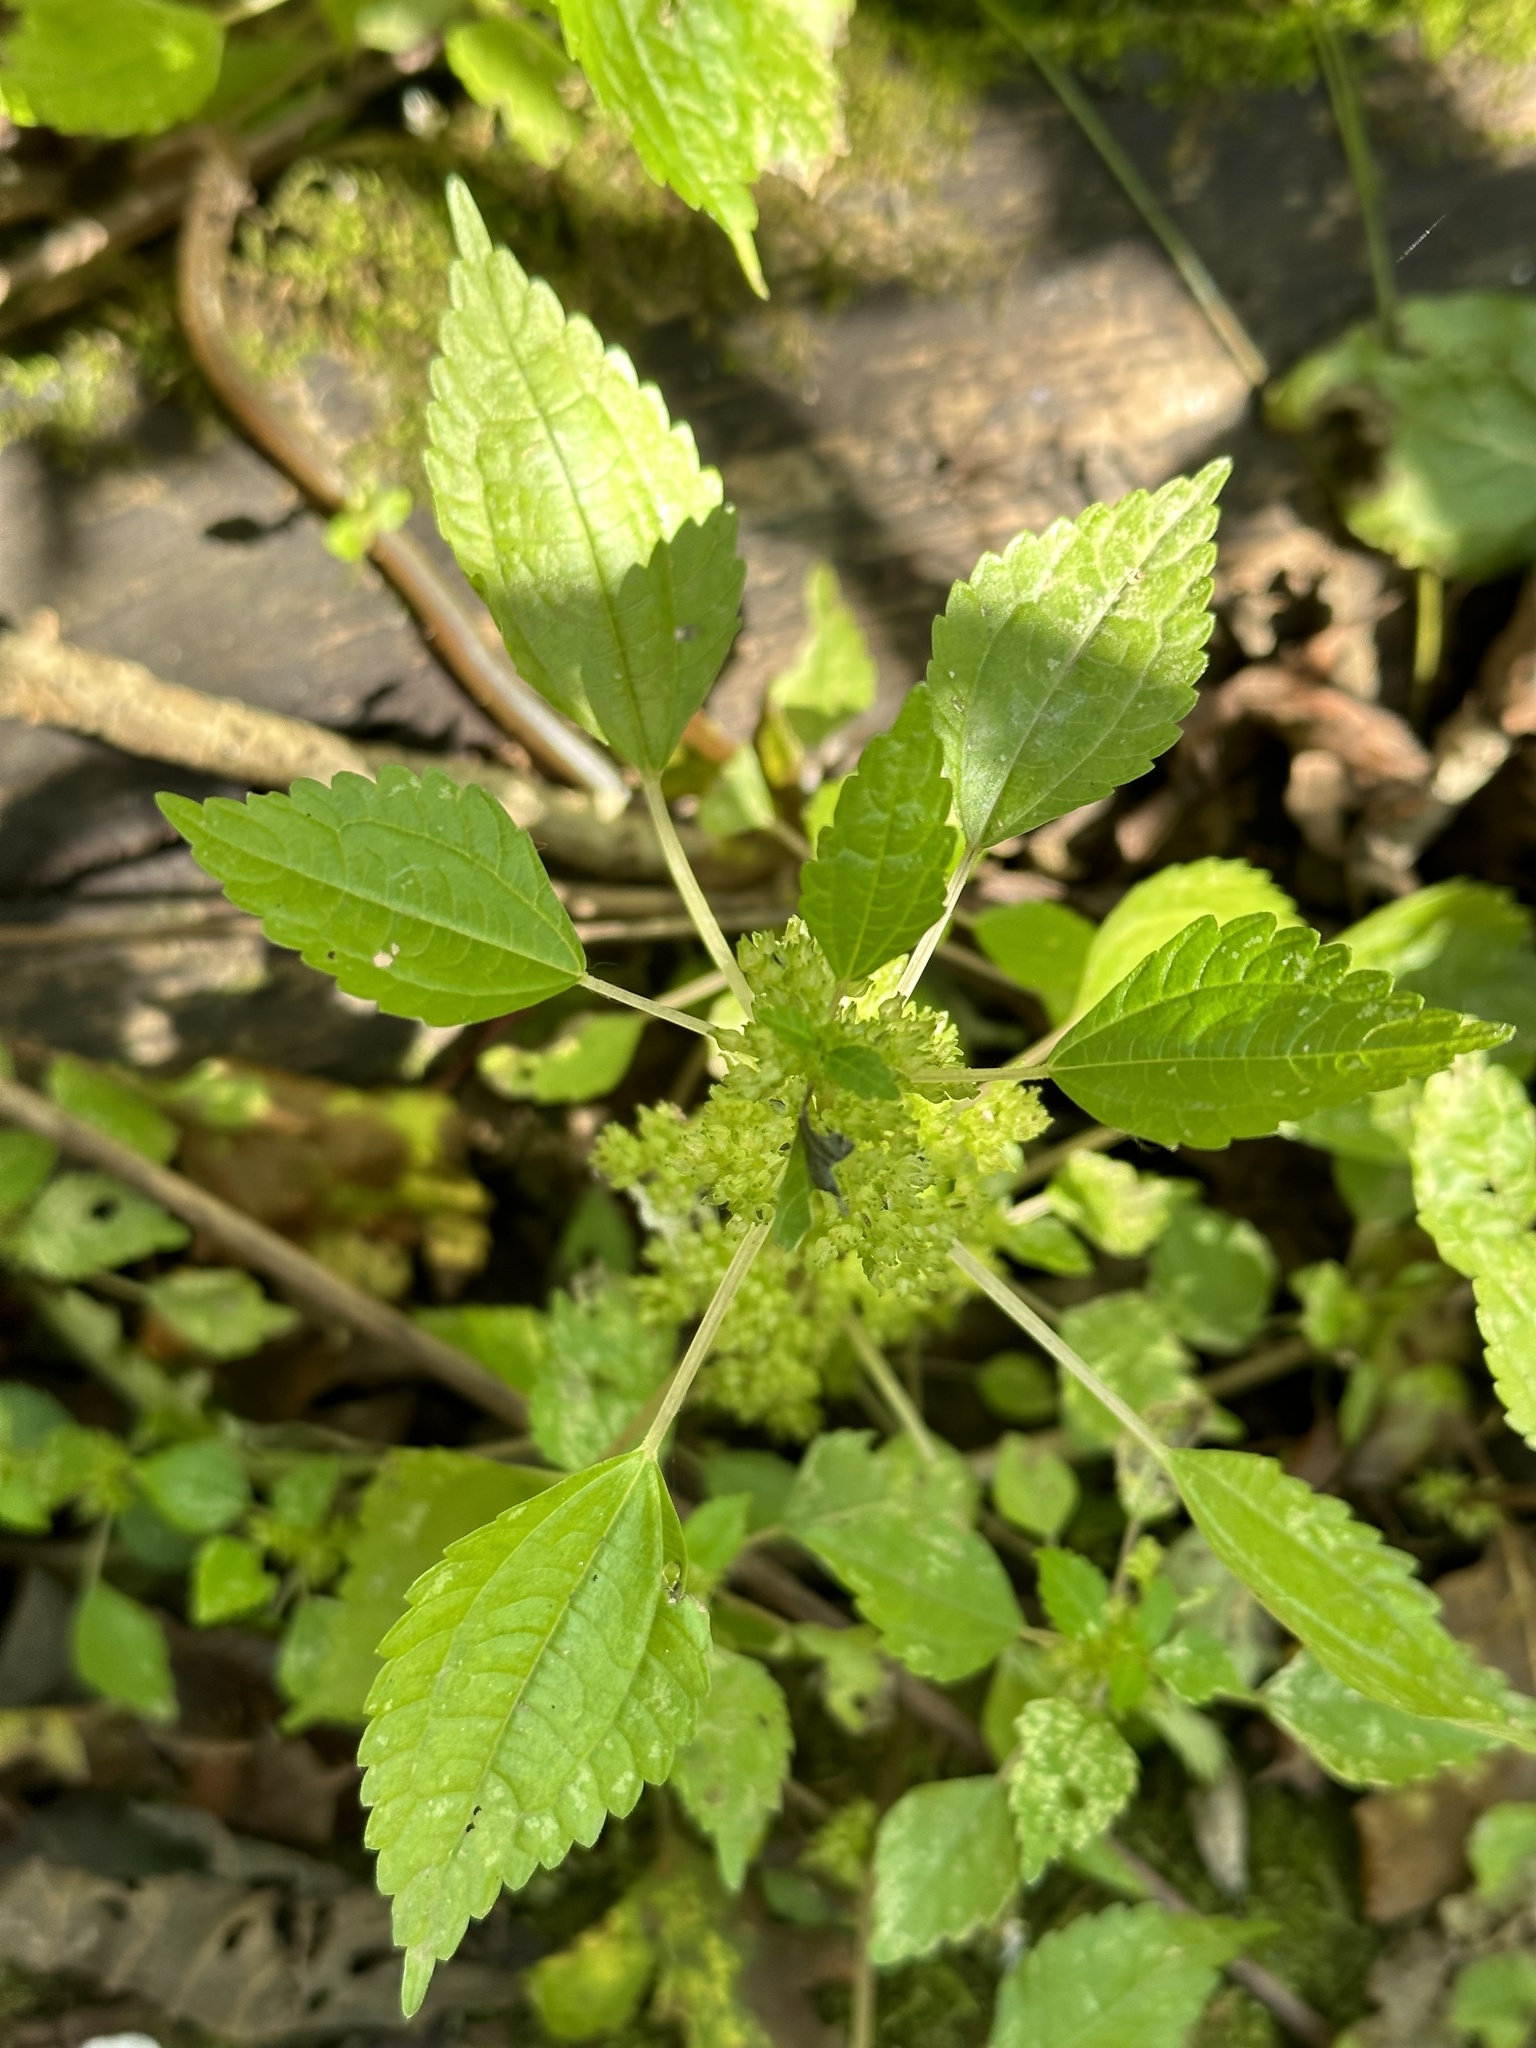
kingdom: Plantae
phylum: Tracheophyta
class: Magnoliopsida
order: Rosales
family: Urticaceae
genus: Pilea
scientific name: Pilea pumila
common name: Clearweed
